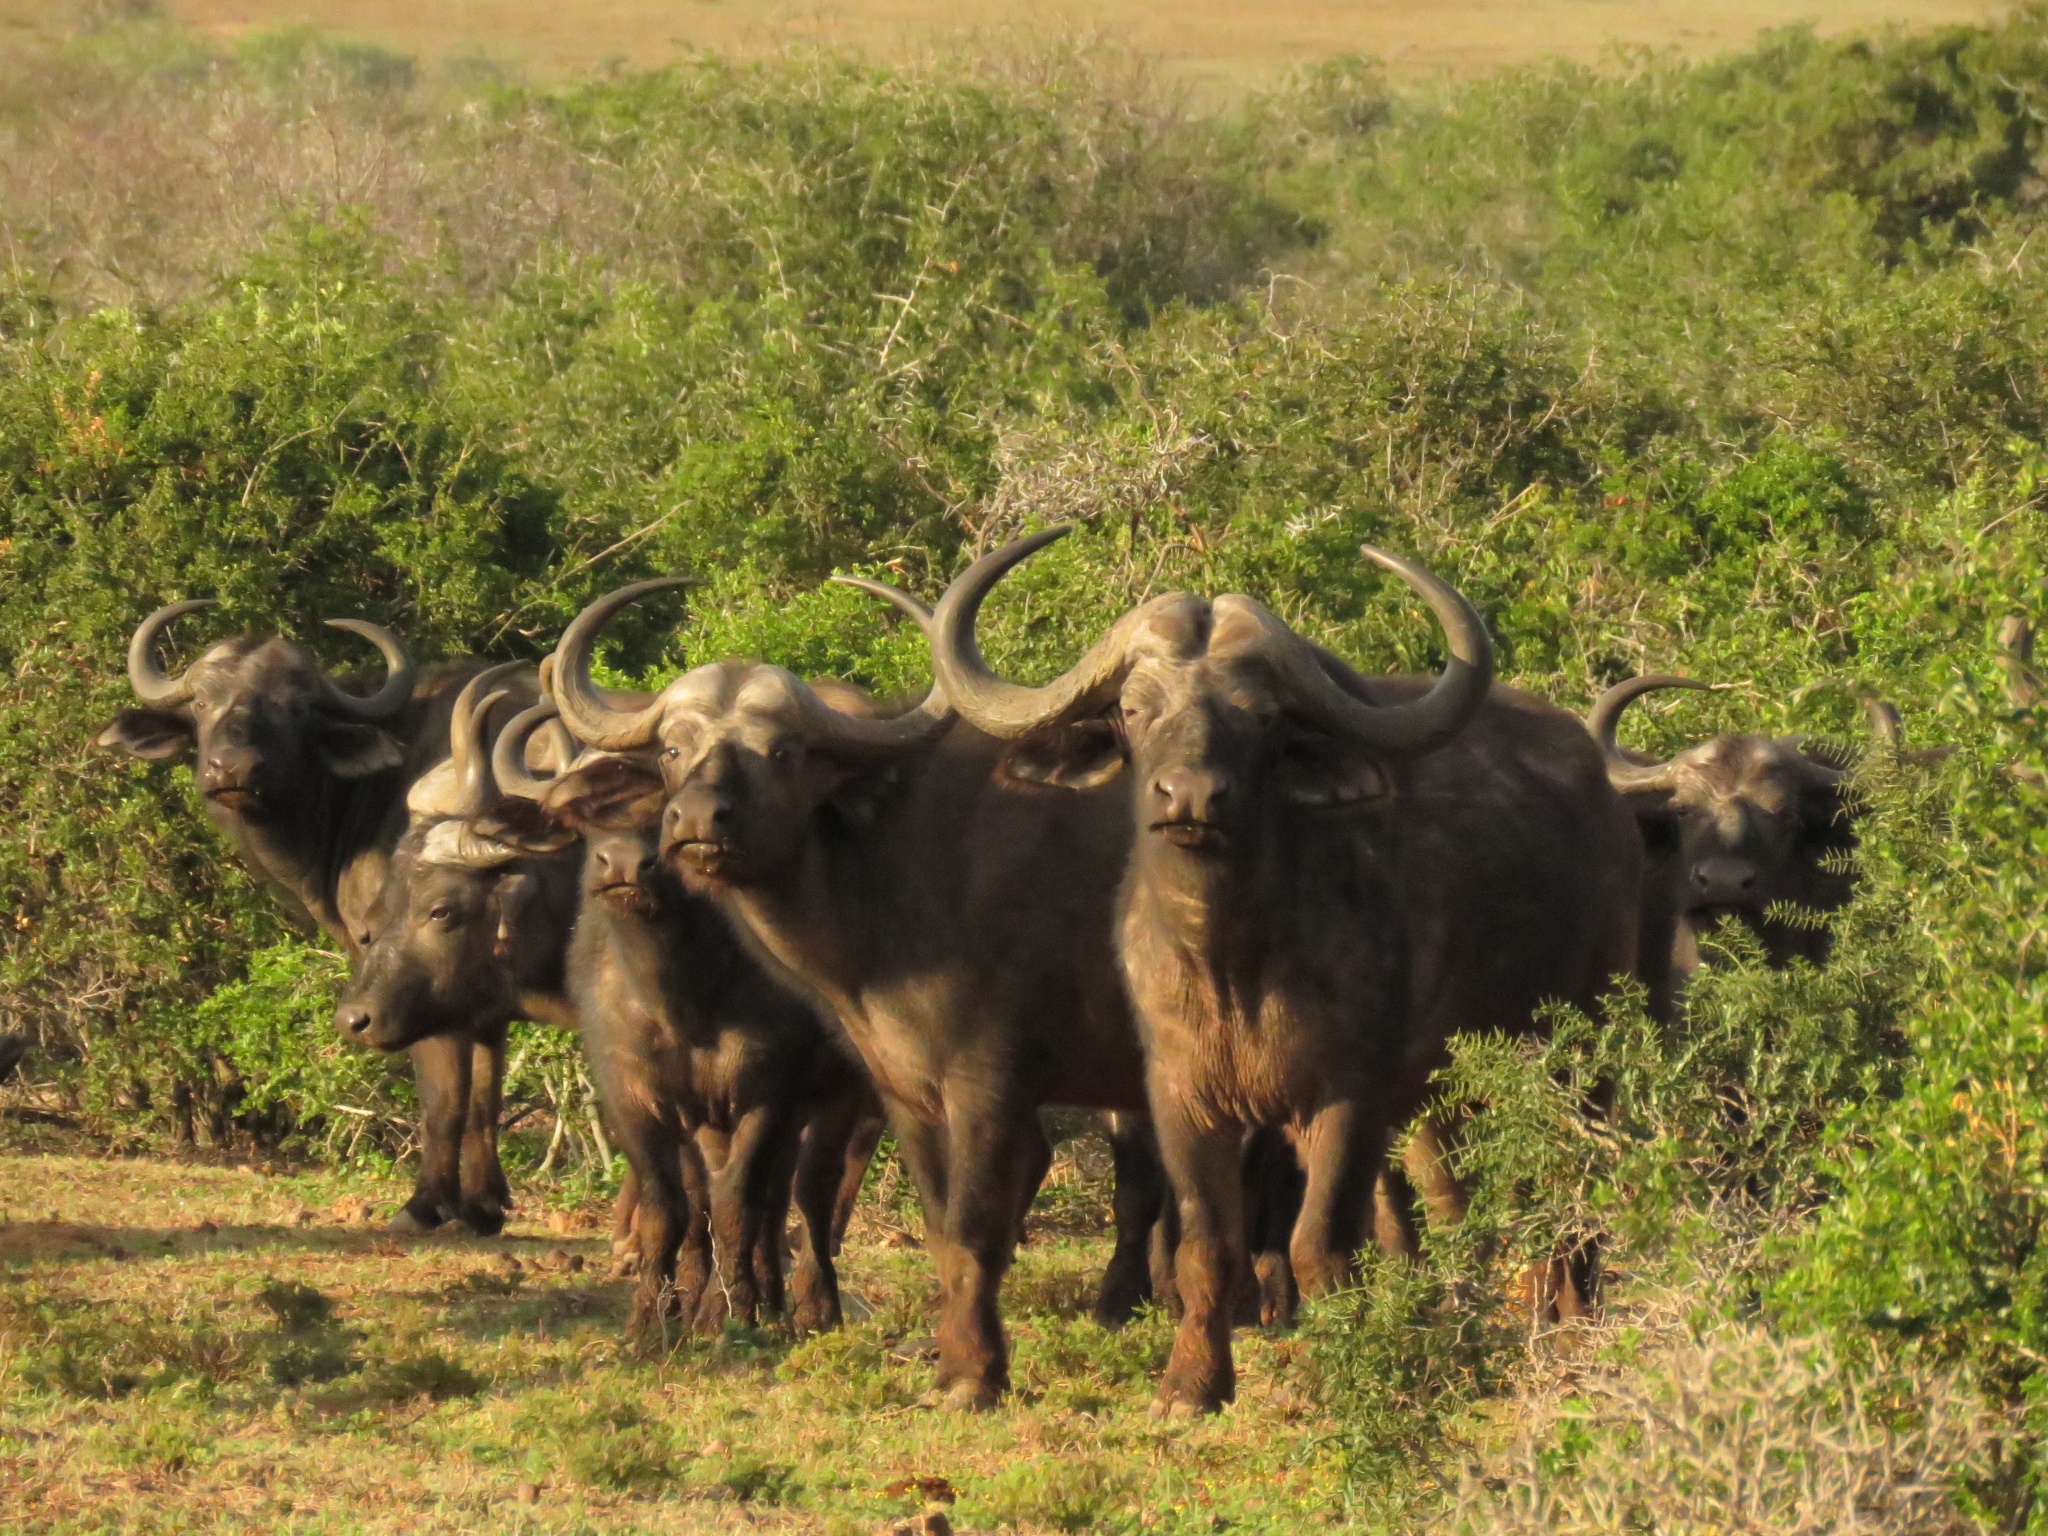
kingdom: Animalia
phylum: Chordata
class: Mammalia
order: Artiodactyla
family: Bovidae
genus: Syncerus
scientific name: Syncerus caffer
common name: African buffalo
